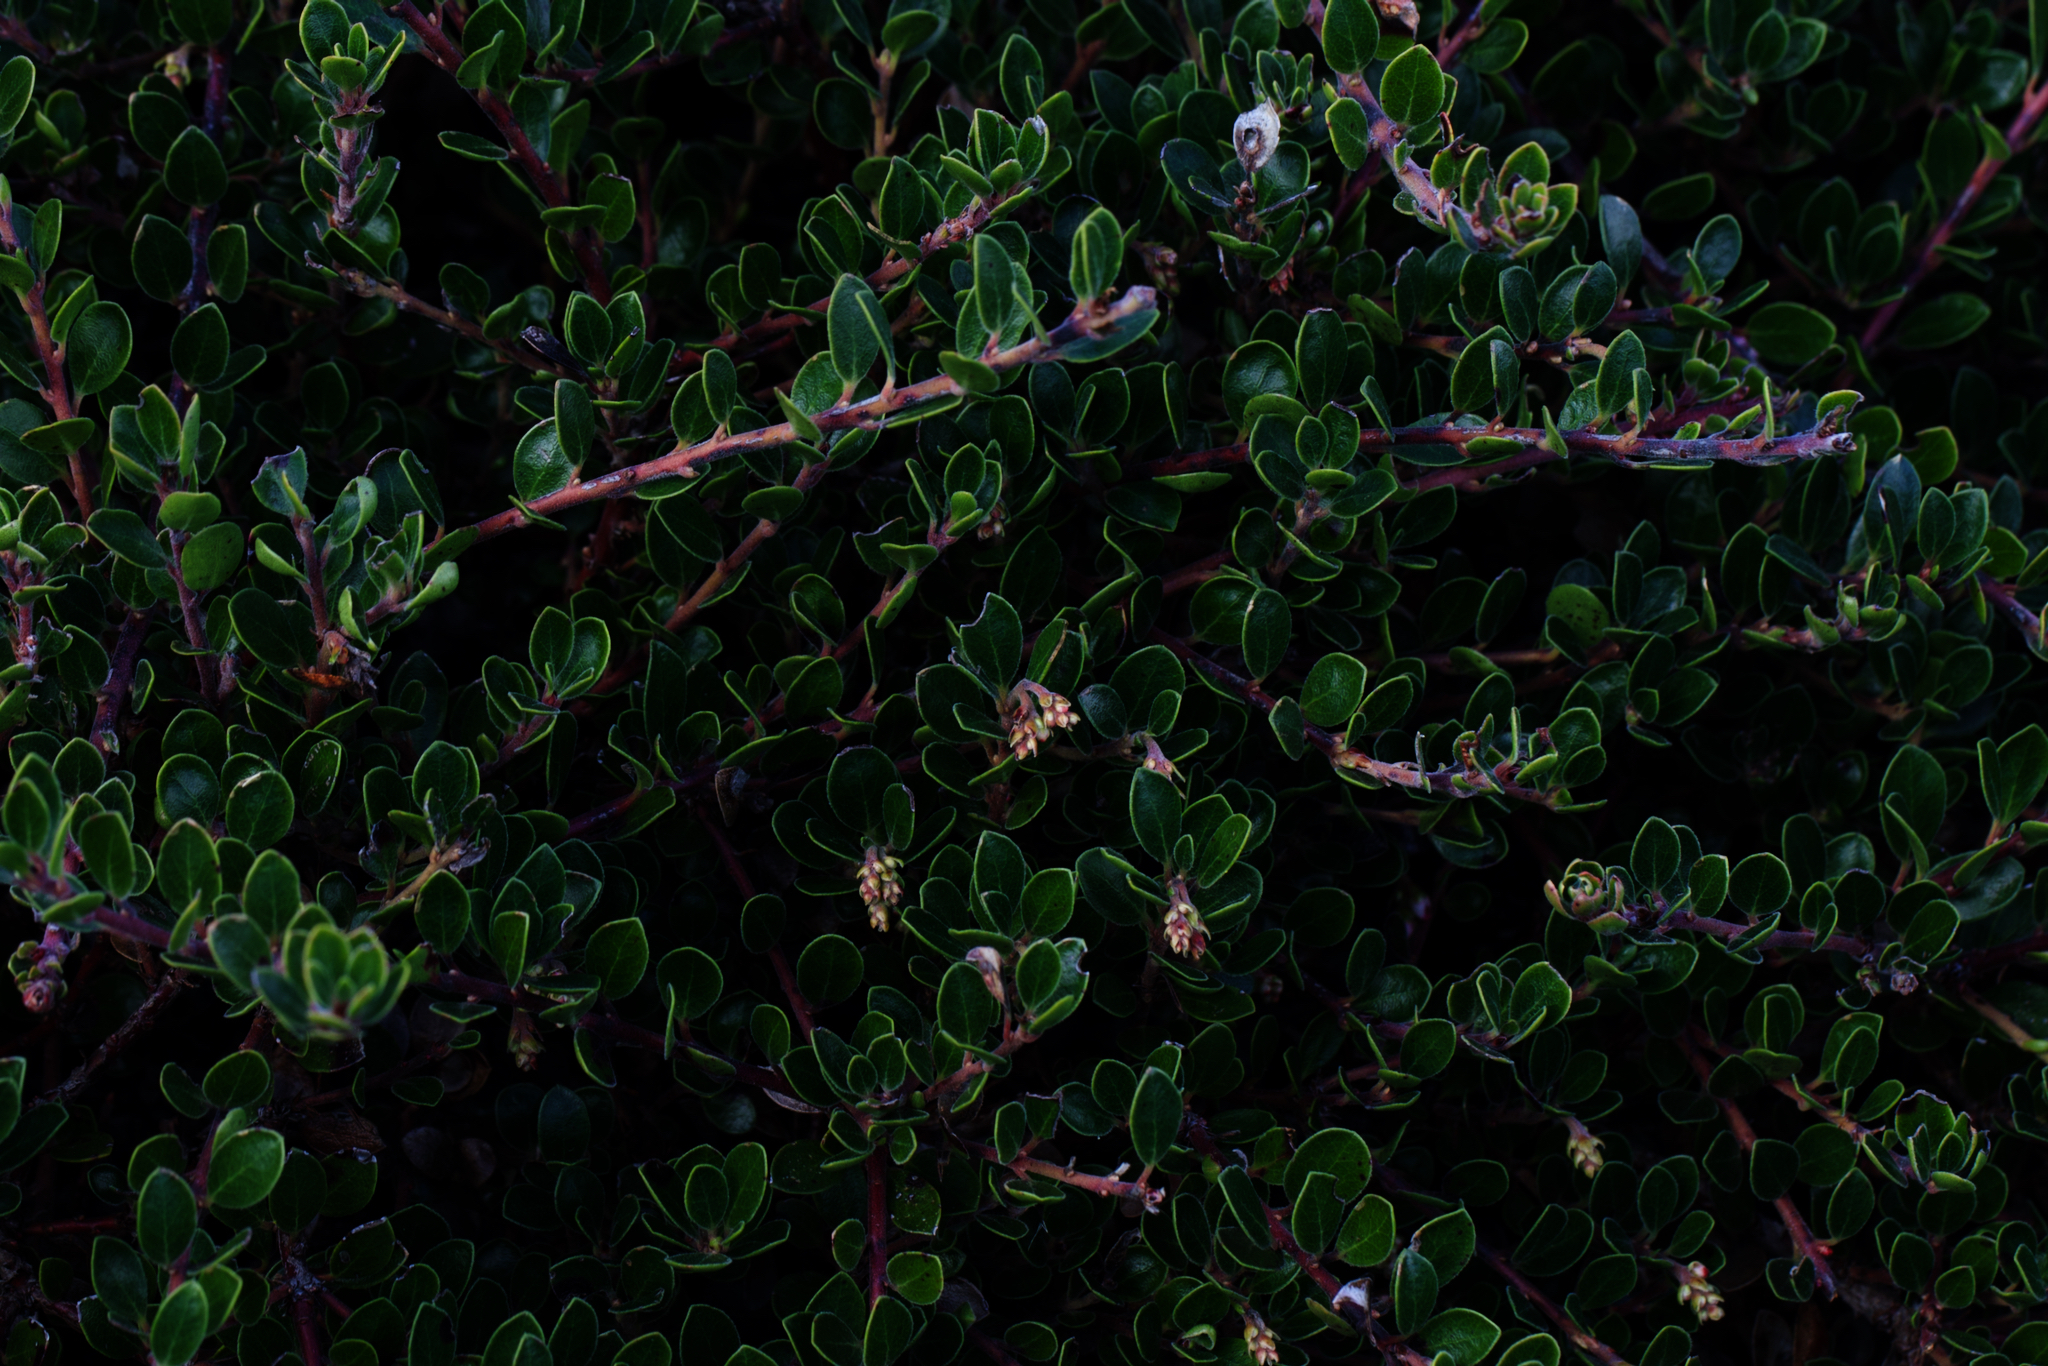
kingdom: Plantae
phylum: Tracheophyta
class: Magnoliopsida
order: Ericales
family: Ericaceae
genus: Arctostaphylos
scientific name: Arctostaphylos uva-ursi
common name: Bearberry
